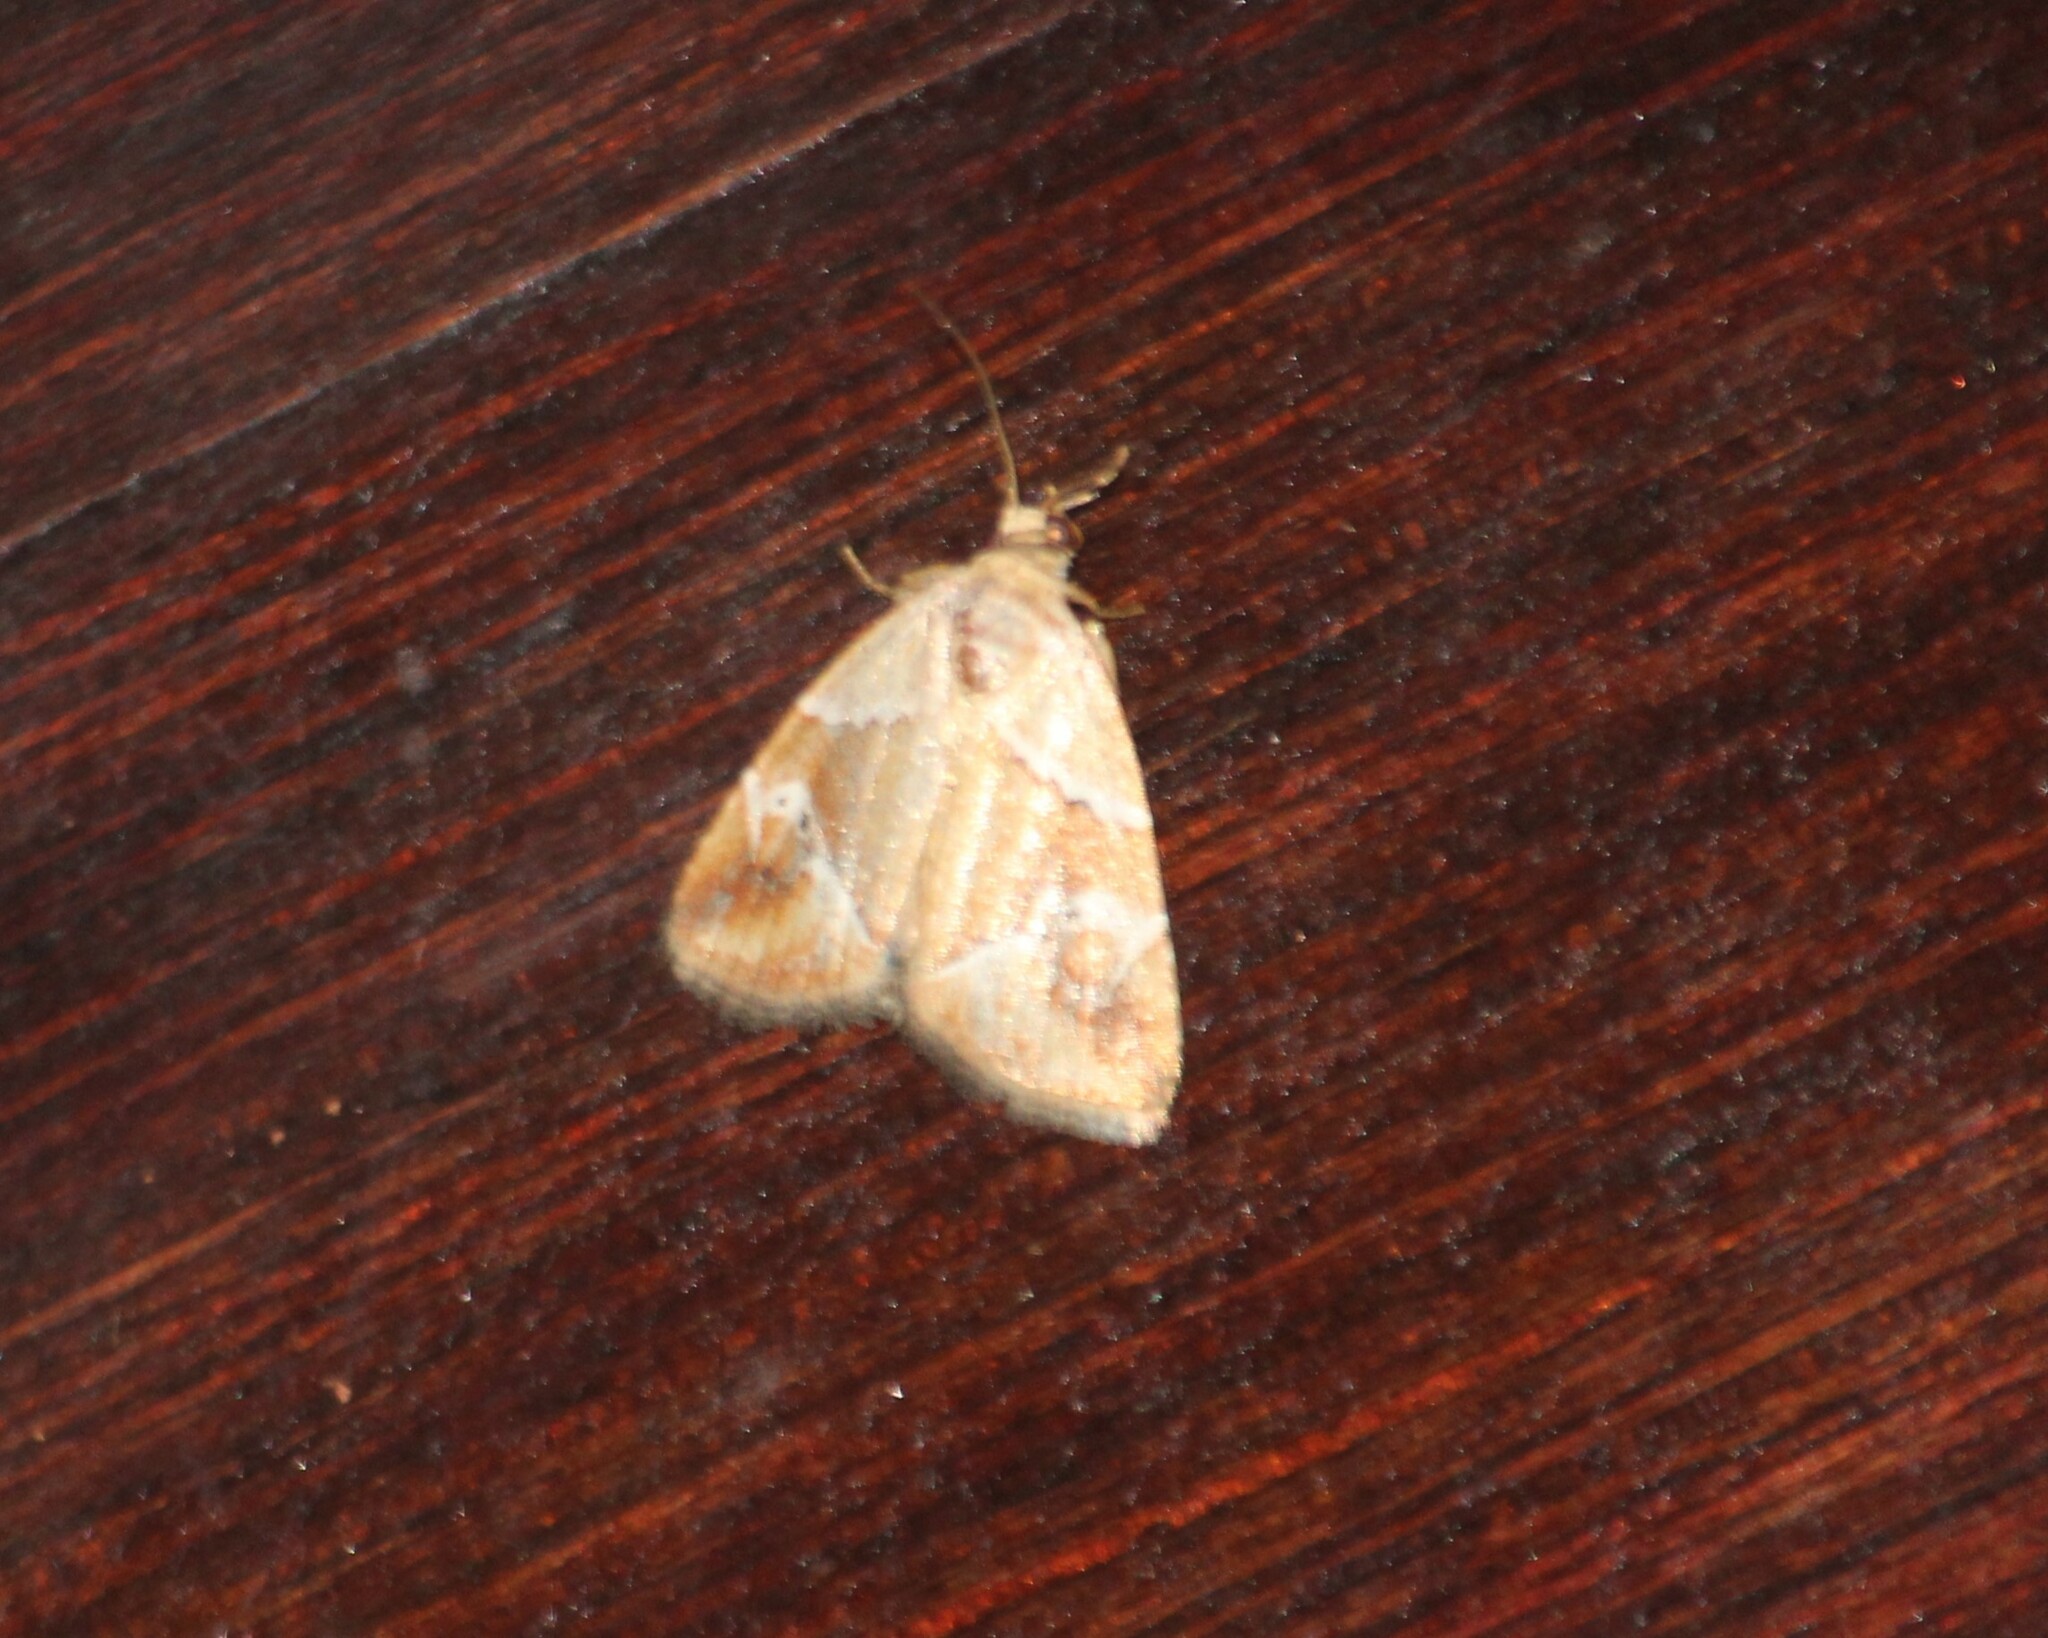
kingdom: Animalia
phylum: Arthropoda
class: Insecta
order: Lepidoptera
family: Noctuidae
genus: Maliattha
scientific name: Maliattha lativitta
